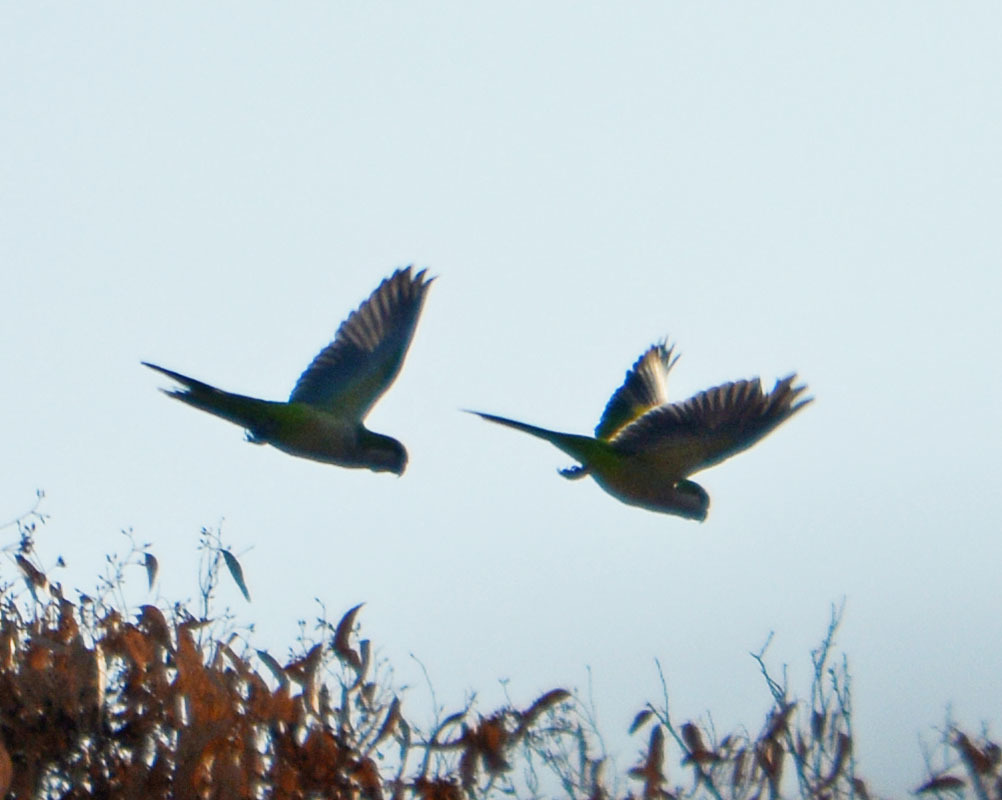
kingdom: Animalia
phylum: Chordata
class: Aves
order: Psittaciformes
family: Psittacidae
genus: Myiopsitta
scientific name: Myiopsitta monachus
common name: Monk parakeet
